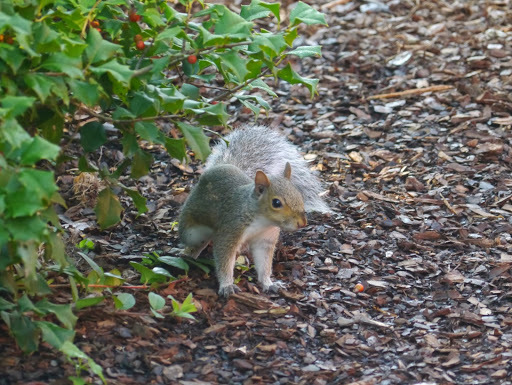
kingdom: Animalia
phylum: Chordata
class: Mammalia
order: Rodentia
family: Sciuridae
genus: Sciurus
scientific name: Sciurus carolinensis
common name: Eastern gray squirrel
